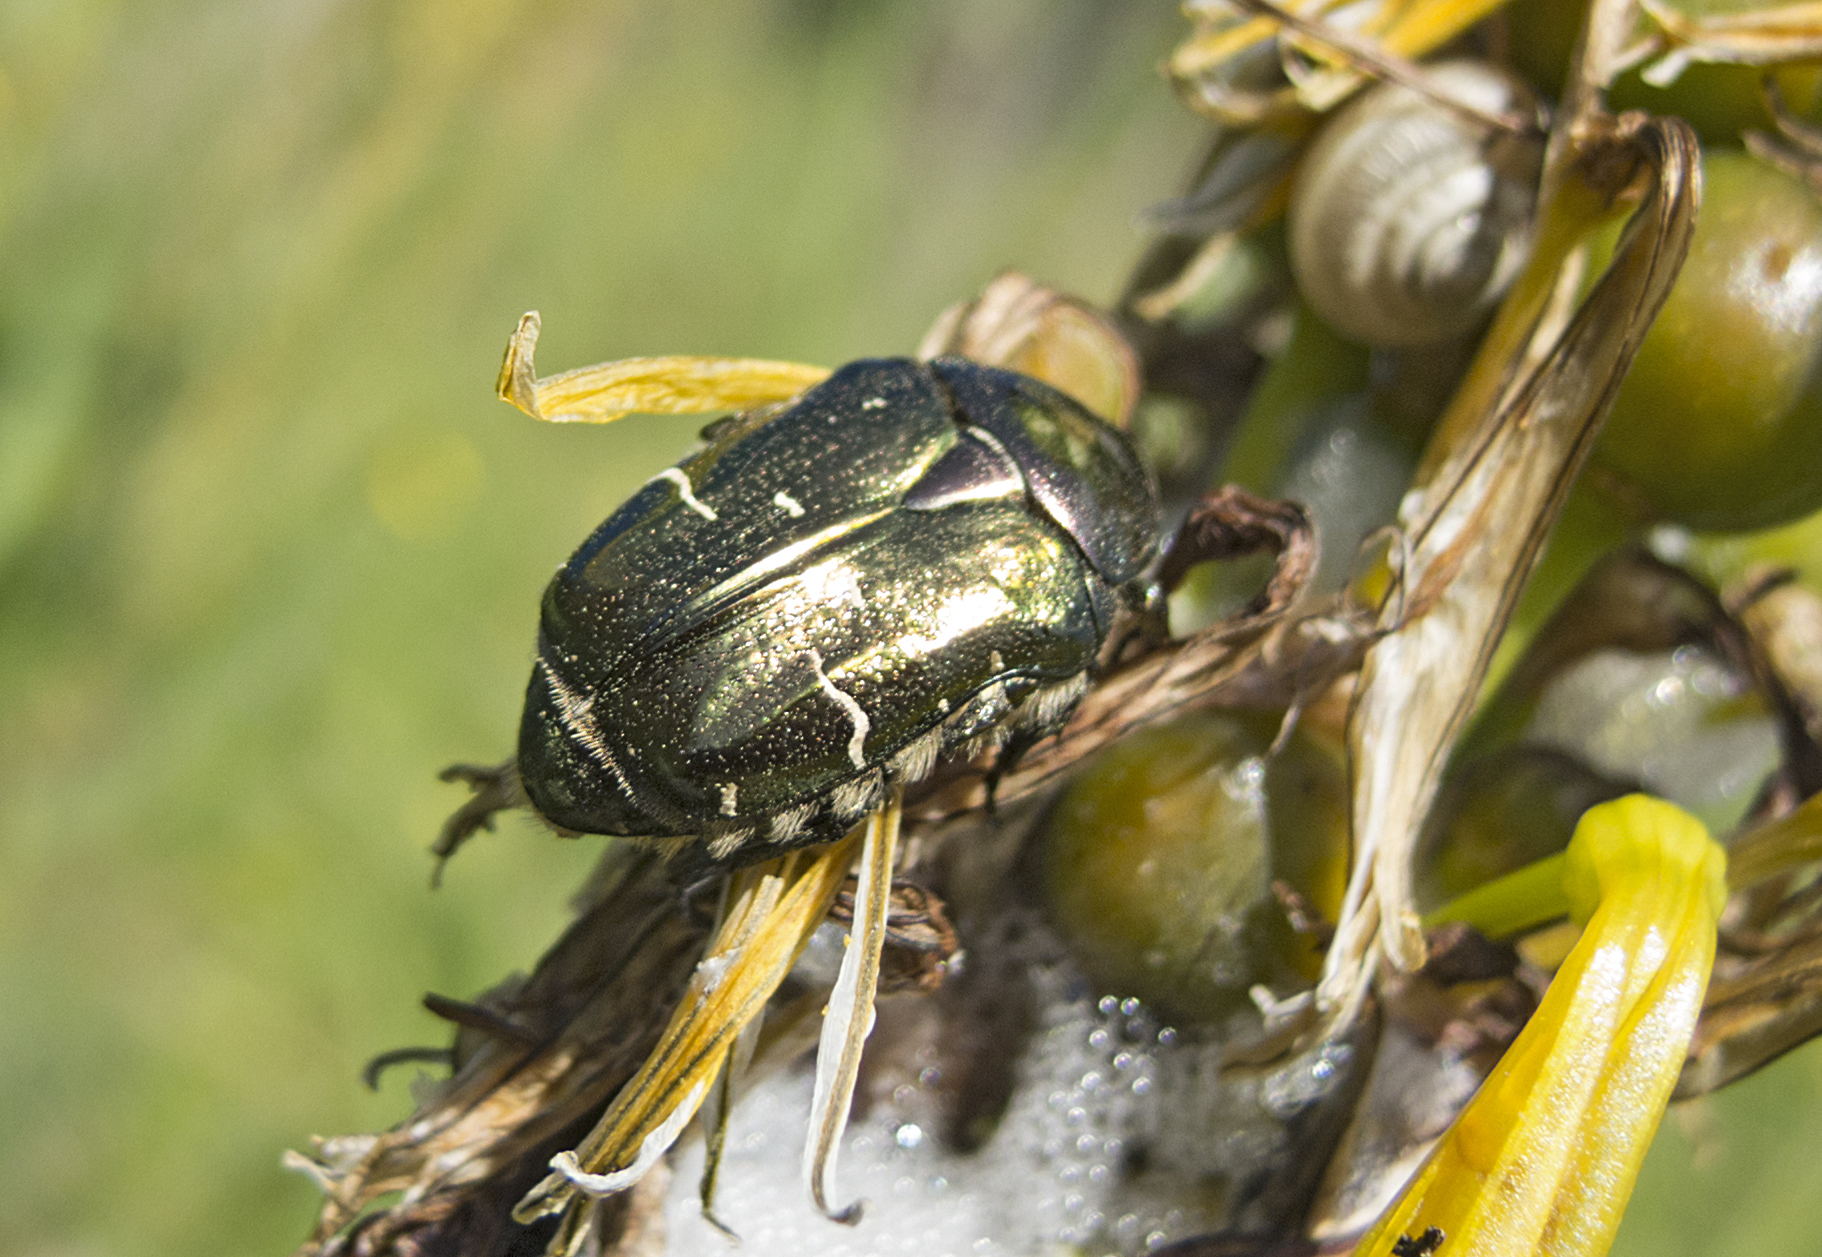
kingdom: Animalia
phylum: Arthropoda
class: Insecta
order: Coleoptera
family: Scarabaeidae
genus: Cetonia
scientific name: Cetonia aurata
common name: Rose chafer
